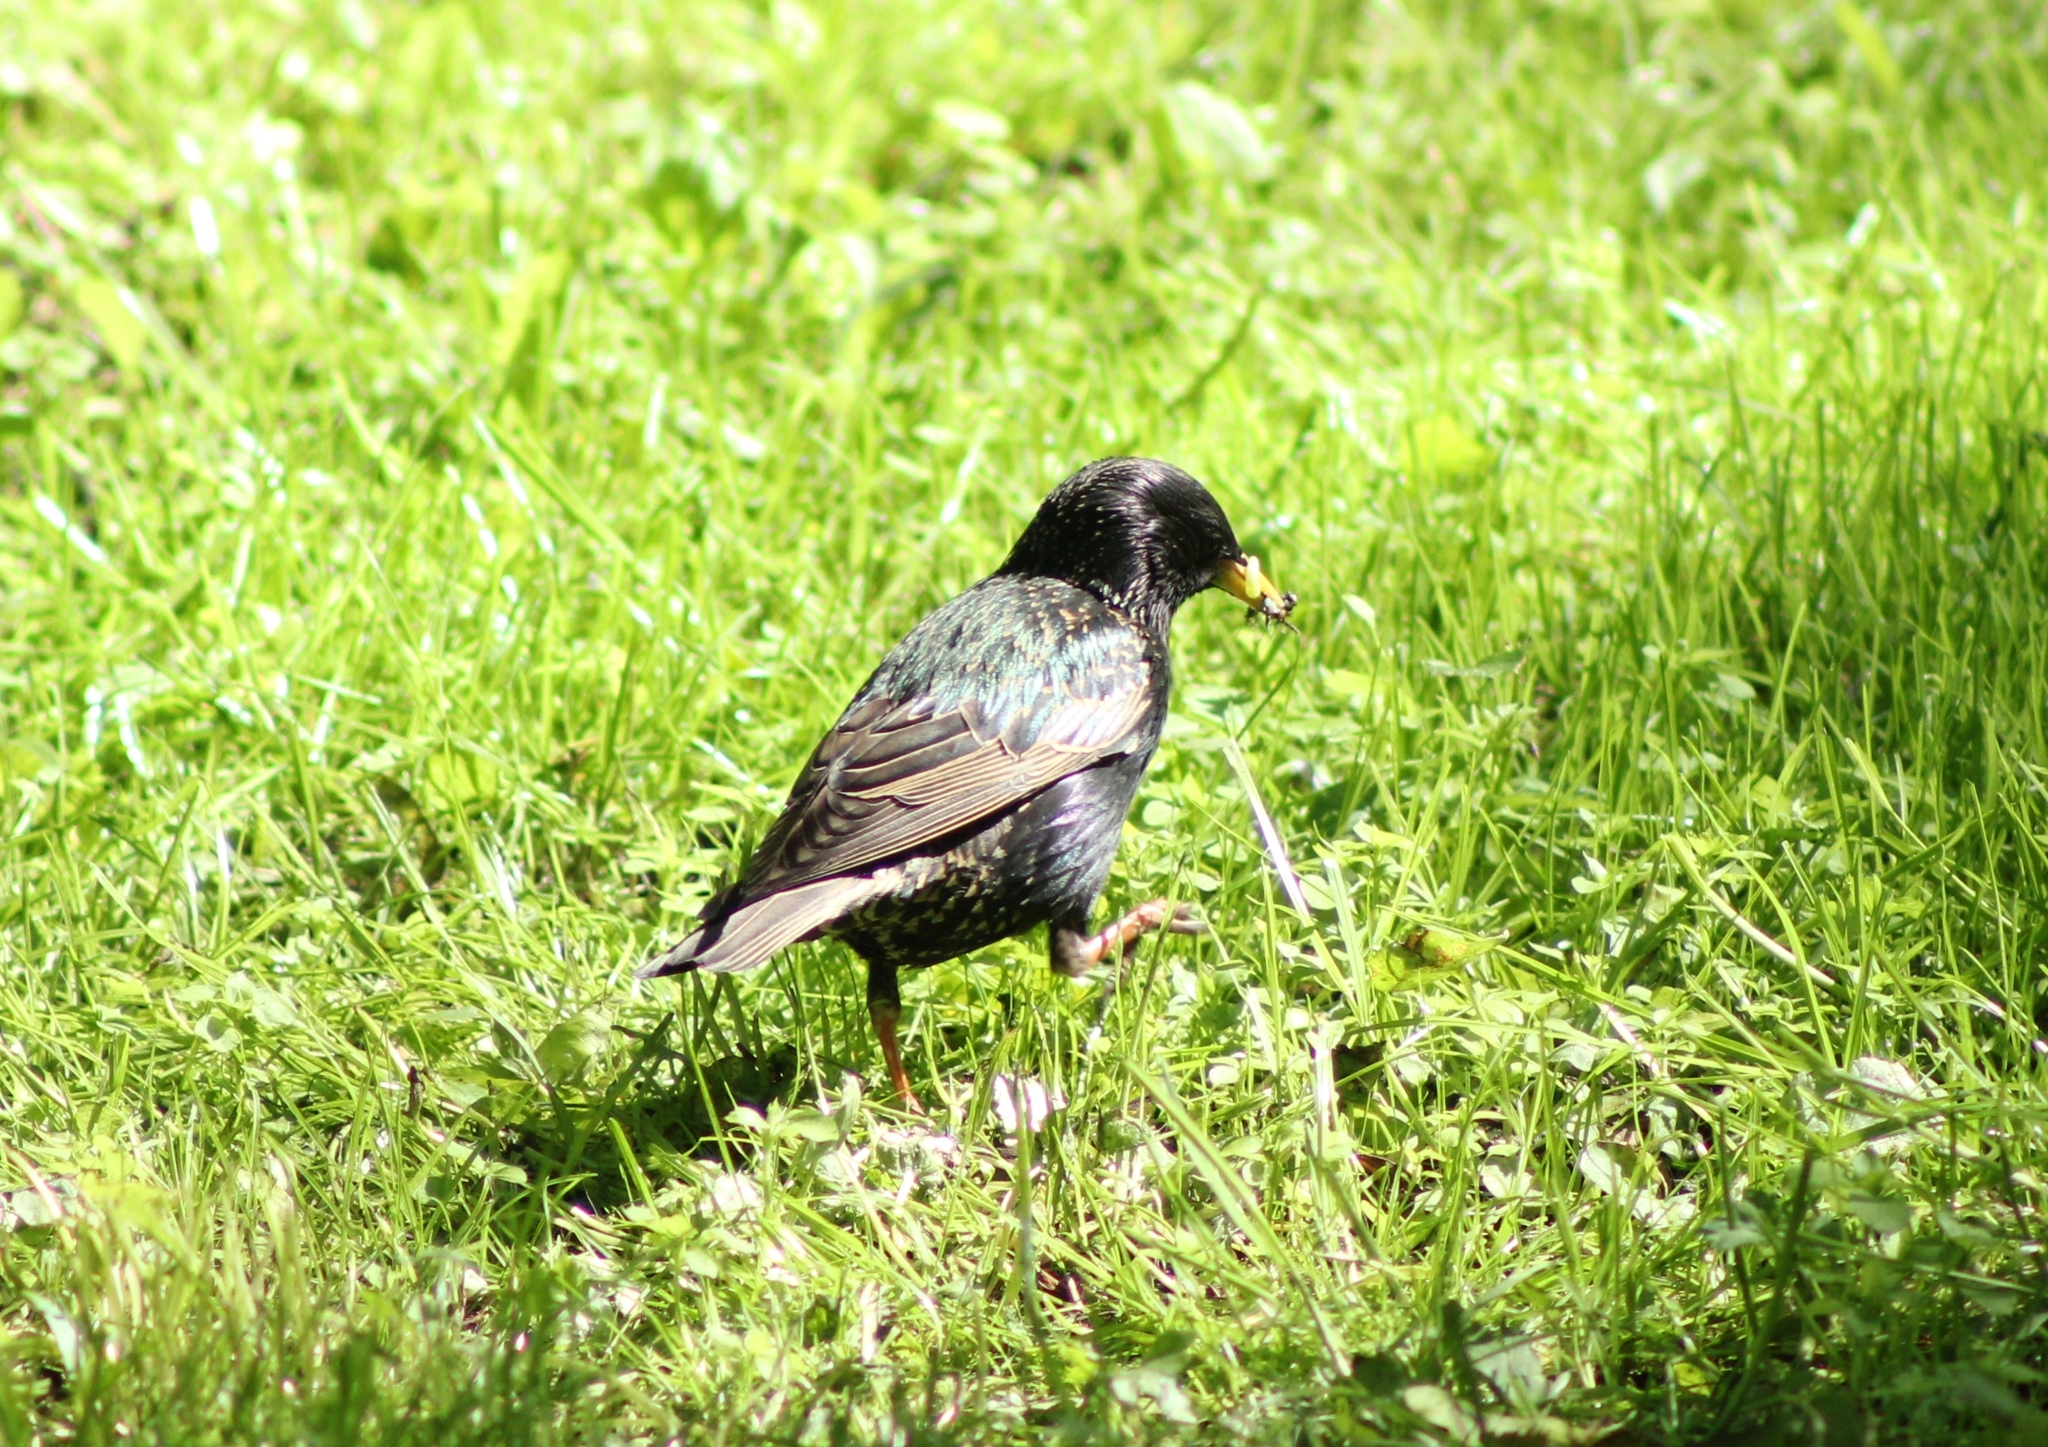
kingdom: Animalia
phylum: Chordata
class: Aves
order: Passeriformes
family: Sturnidae
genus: Sturnus
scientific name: Sturnus vulgaris
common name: Common starling
